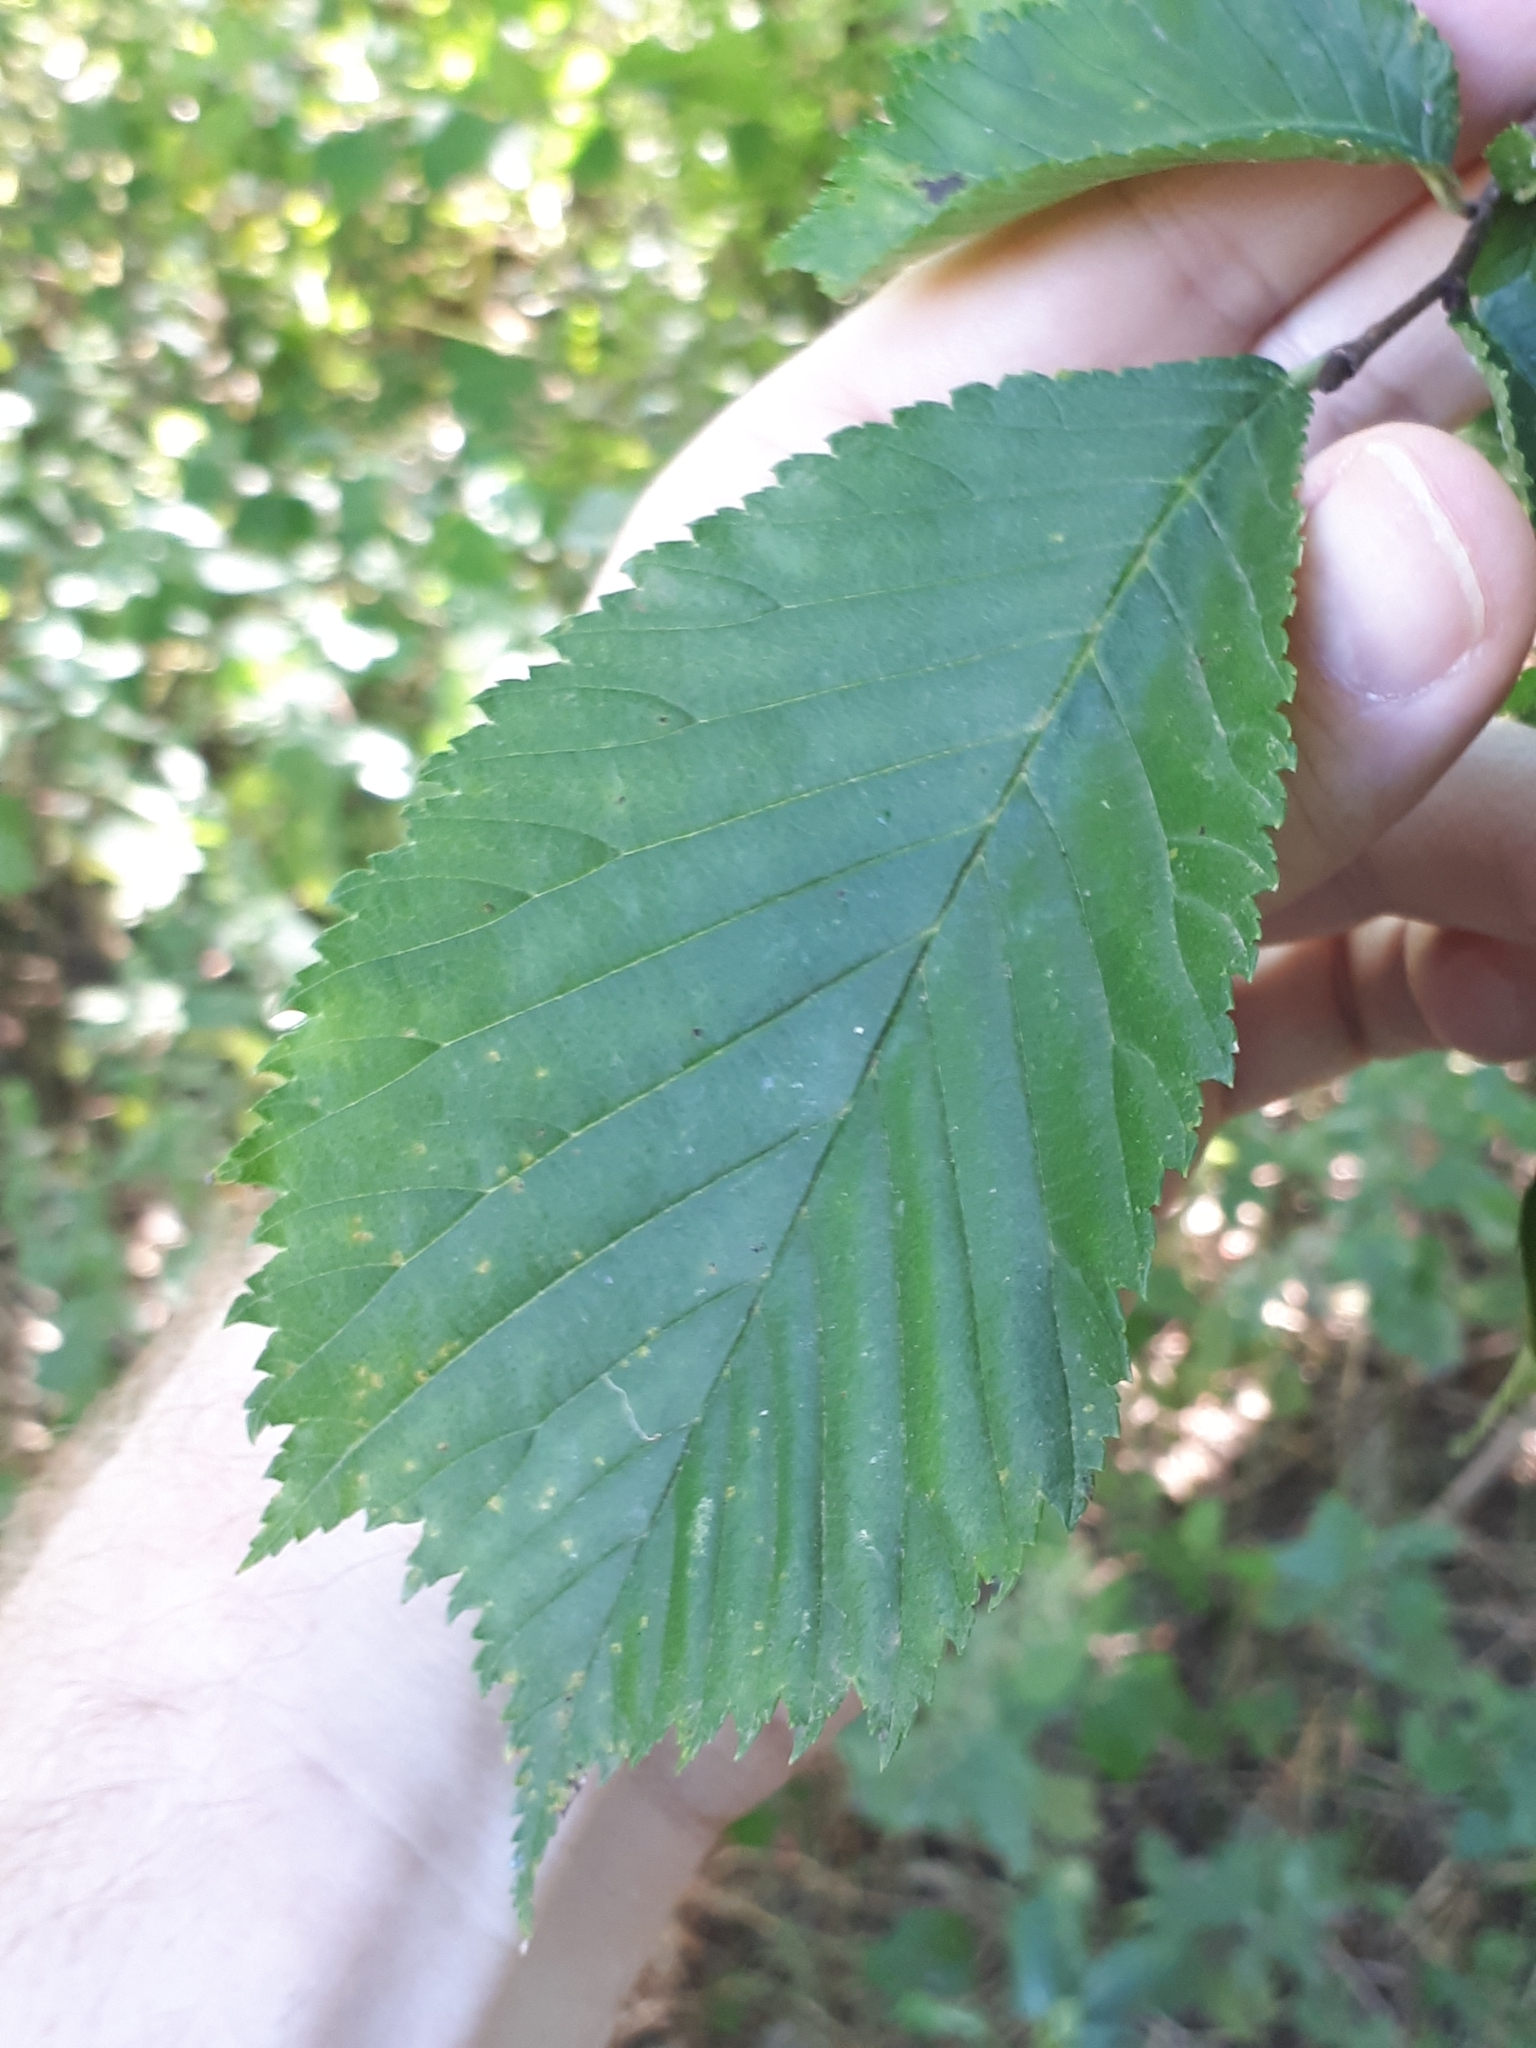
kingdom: Plantae
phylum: Tracheophyta
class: Magnoliopsida
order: Rosales
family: Ulmaceae
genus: Ulmus
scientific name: Ulmus glabra
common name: Wych elm
